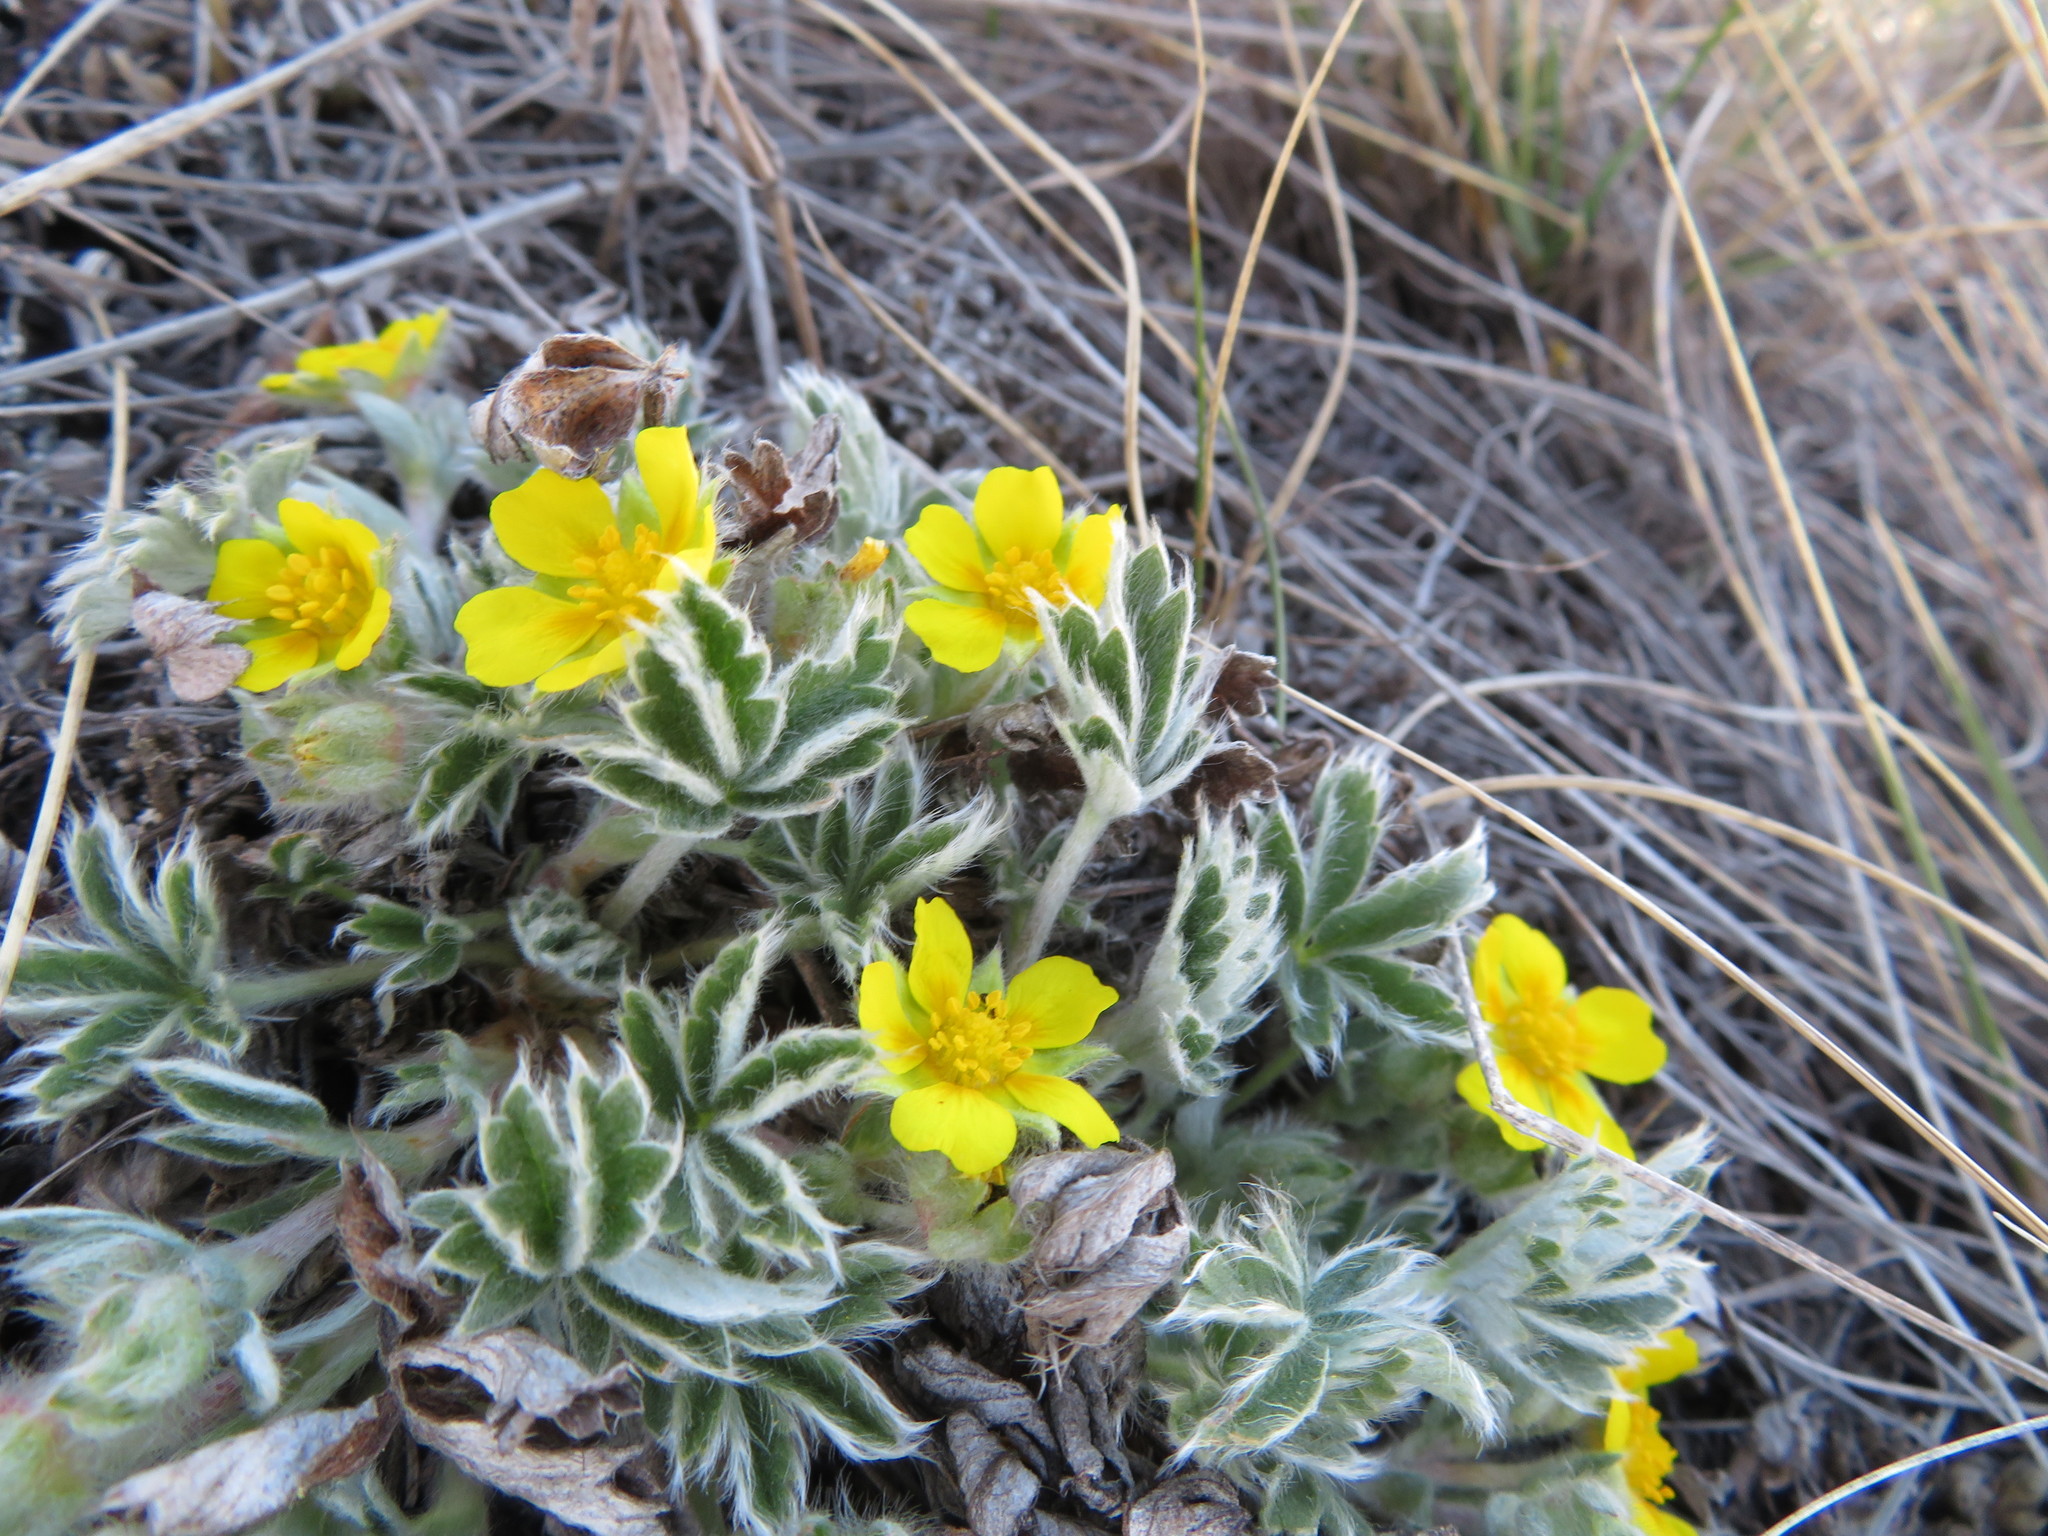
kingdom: Plantae
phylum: Tracheophyta
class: Magnoliopsida
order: Rosales
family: Rosaceae
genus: Potentilla
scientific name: Potentilla concinna
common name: Early cinquefoil
